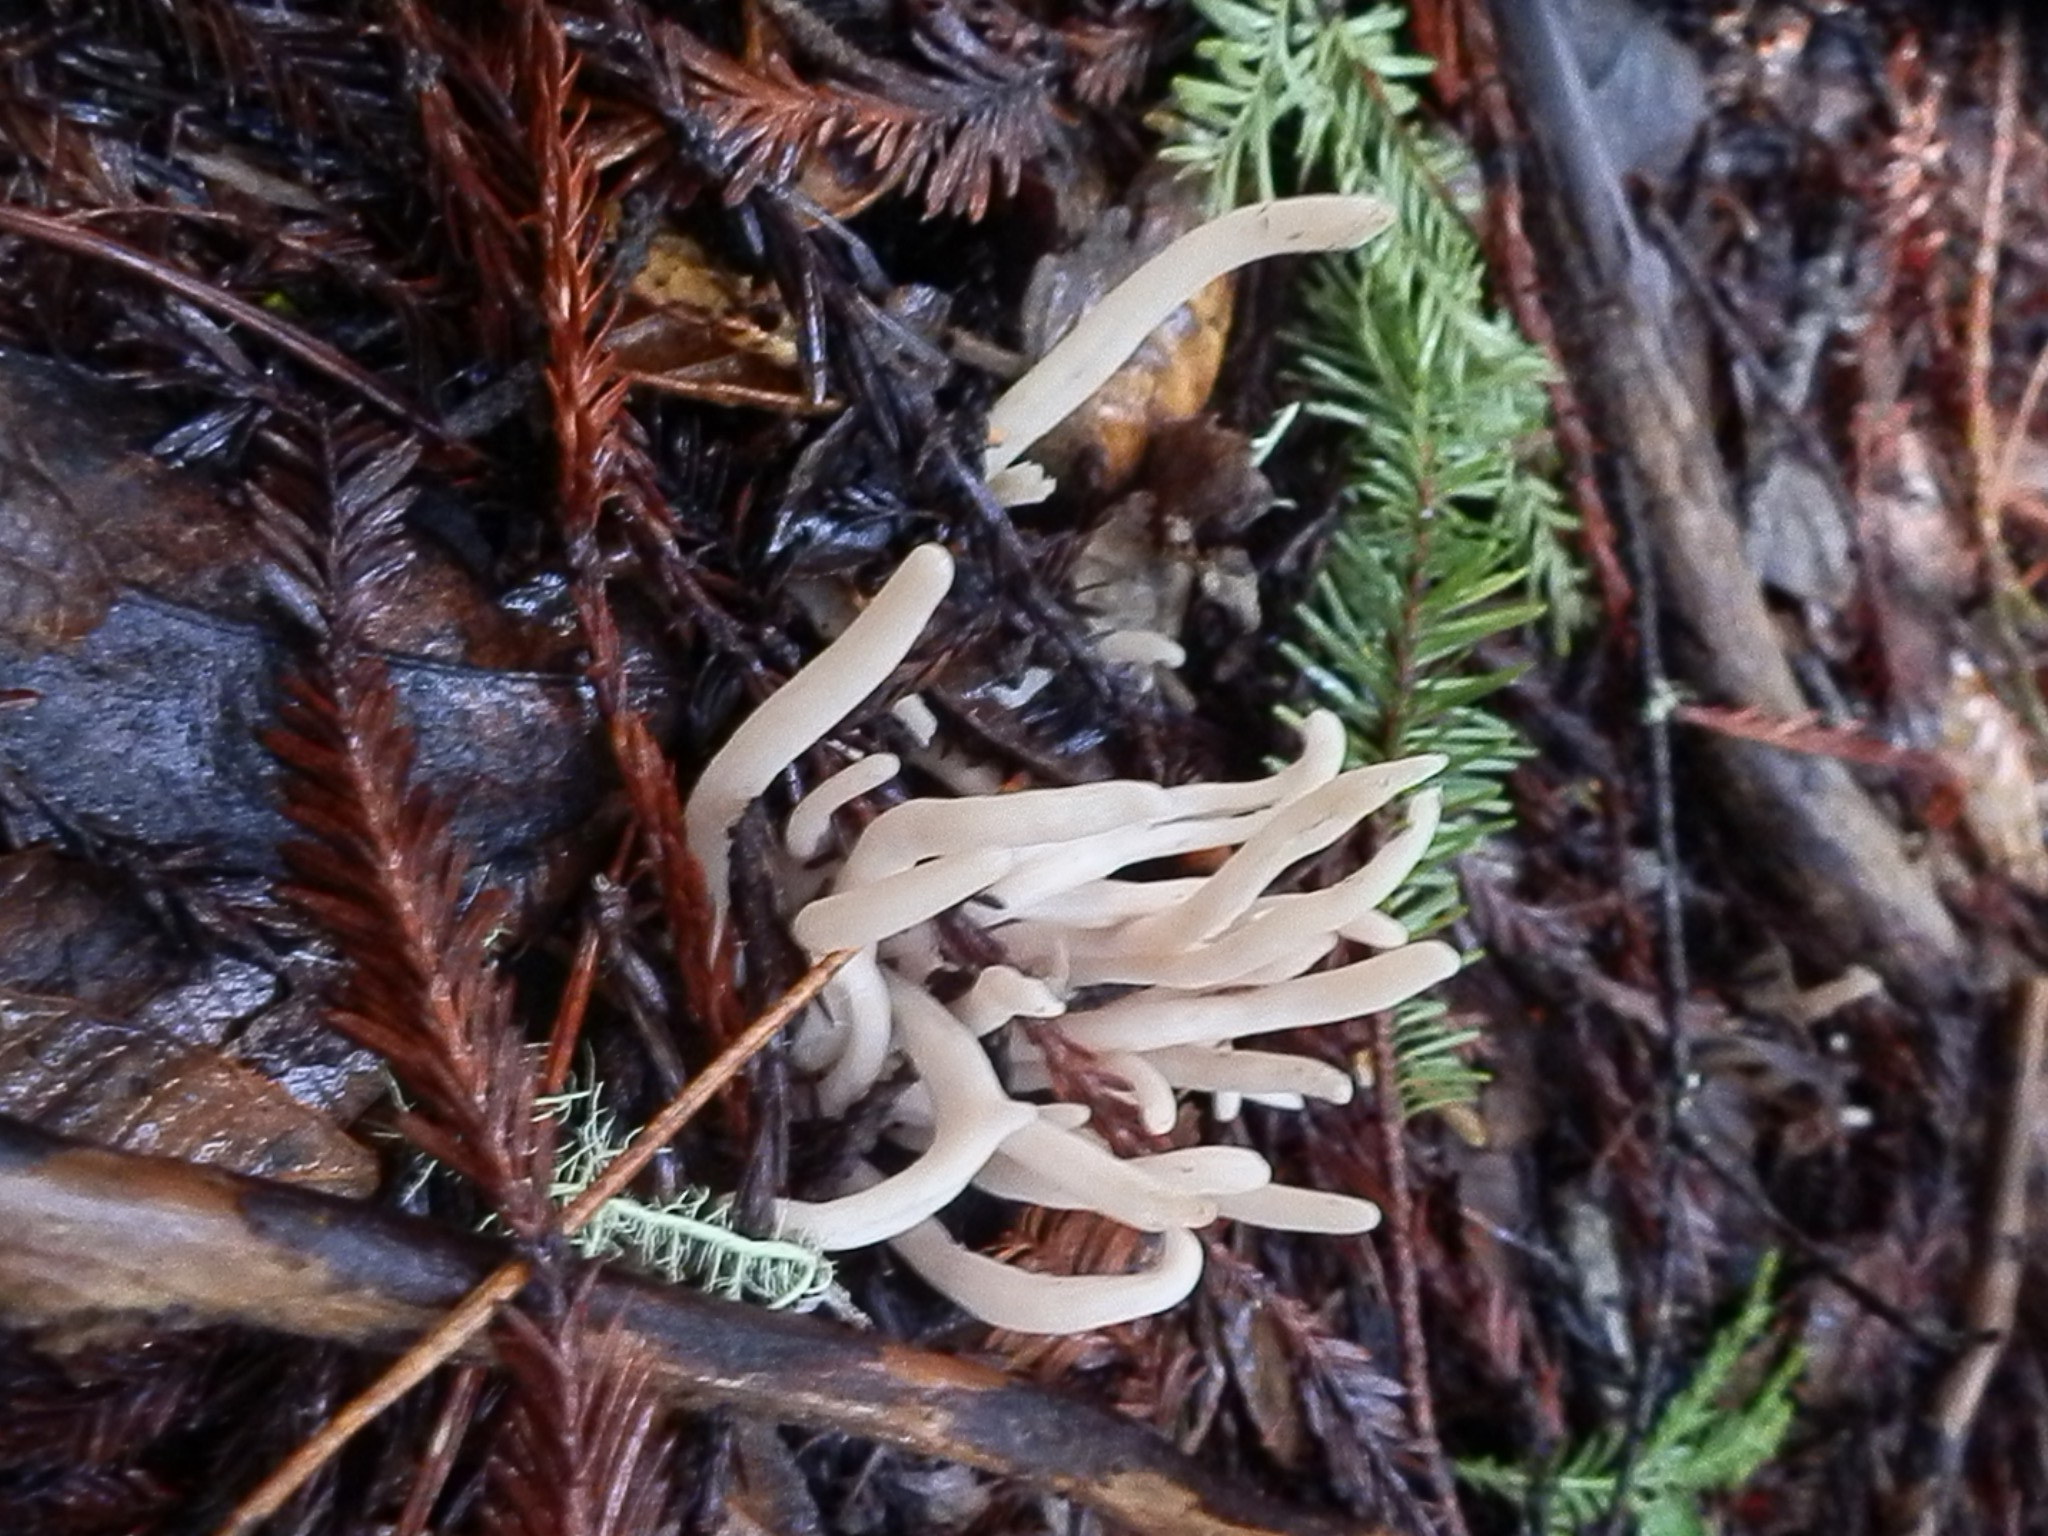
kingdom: Fungi
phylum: Basidiomycota
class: Agaricomycetes
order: Agaricales
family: Clavariaceae
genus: Clavaria
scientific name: Clavaria fragilis
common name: White spindles
